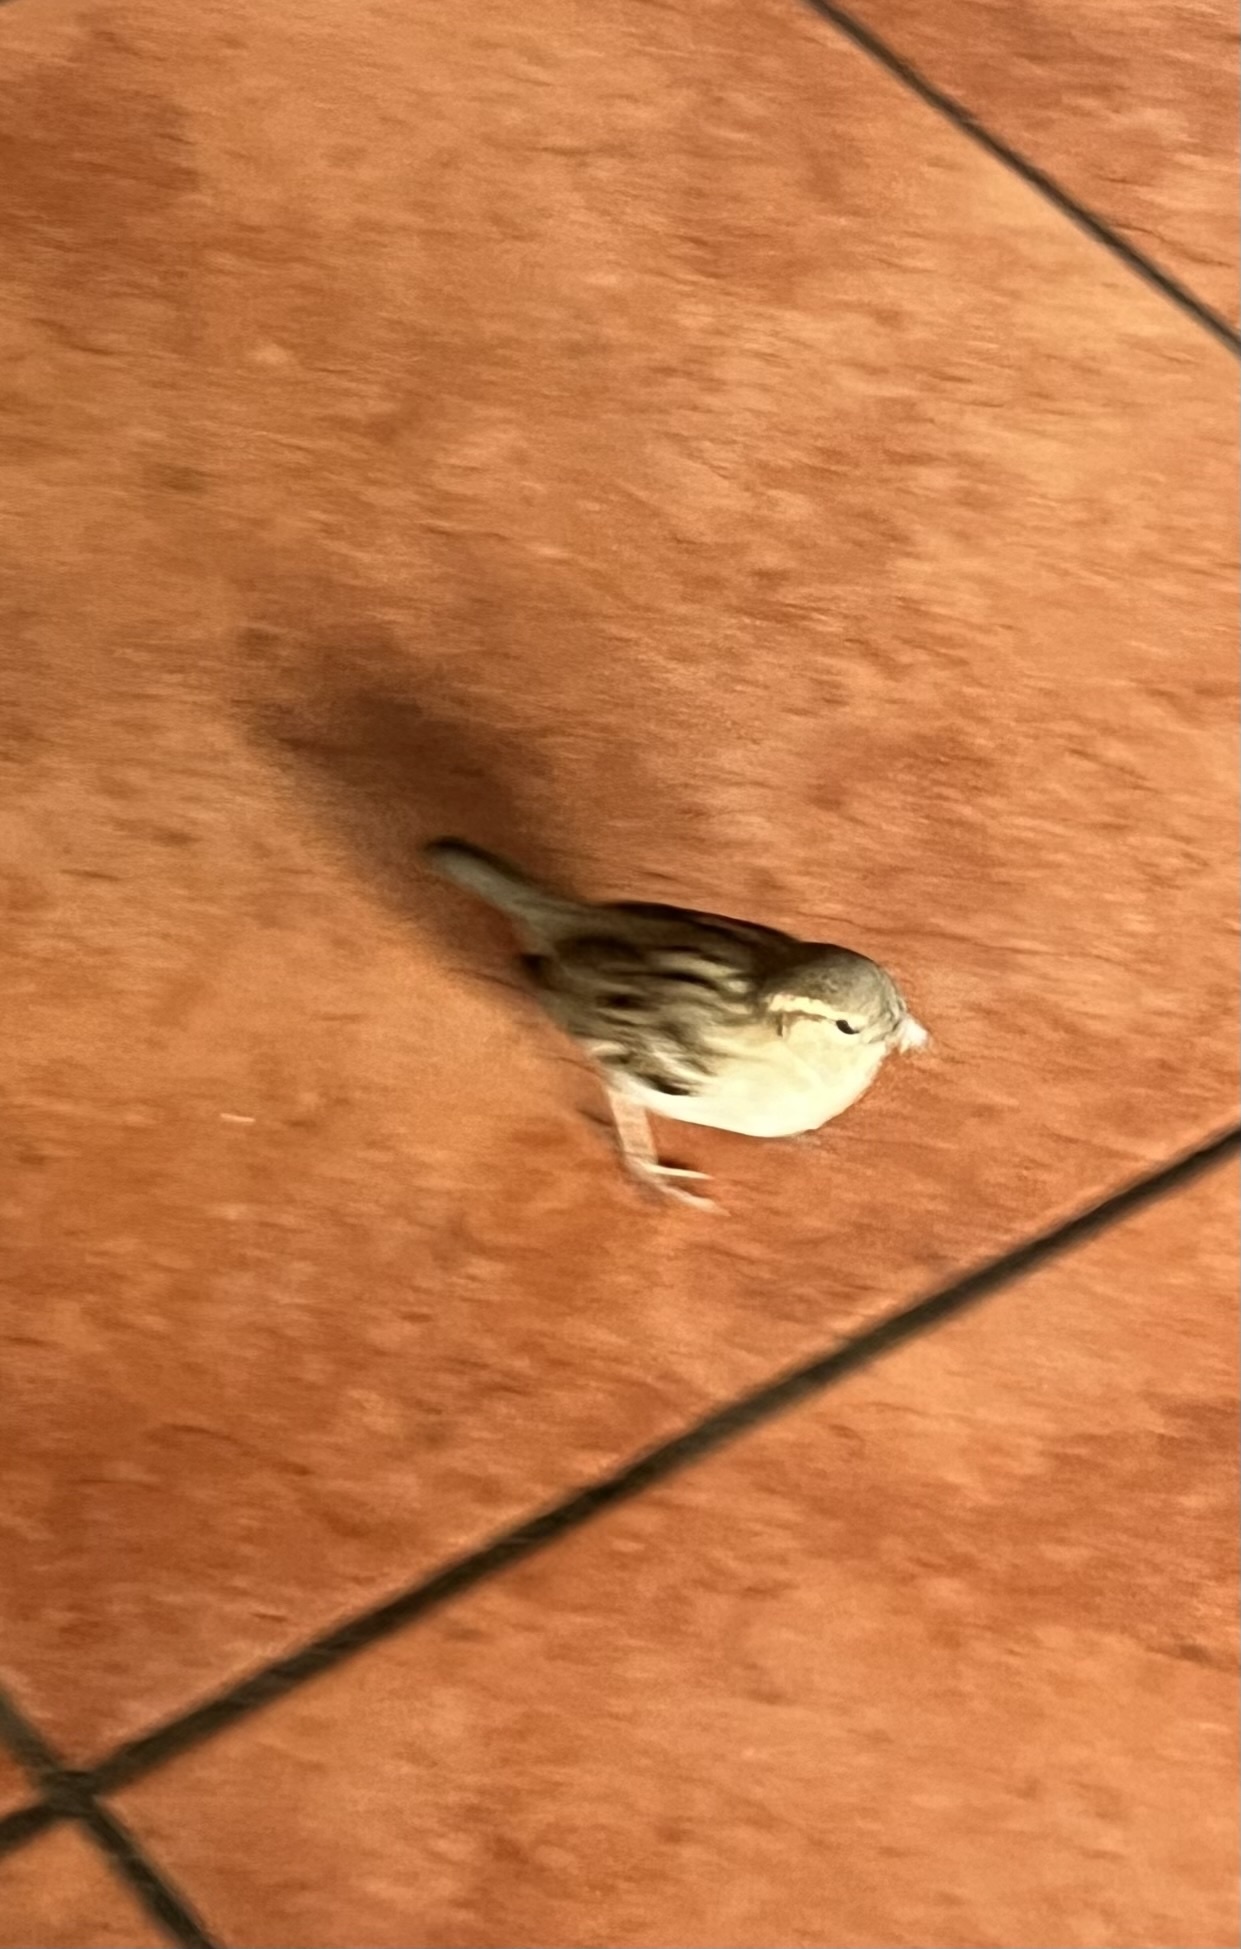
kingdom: Animalia
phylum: Chordata
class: Aves
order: Passeriformes
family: Passeridae
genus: Passer
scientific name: Passer domesticus
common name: House sparrow
